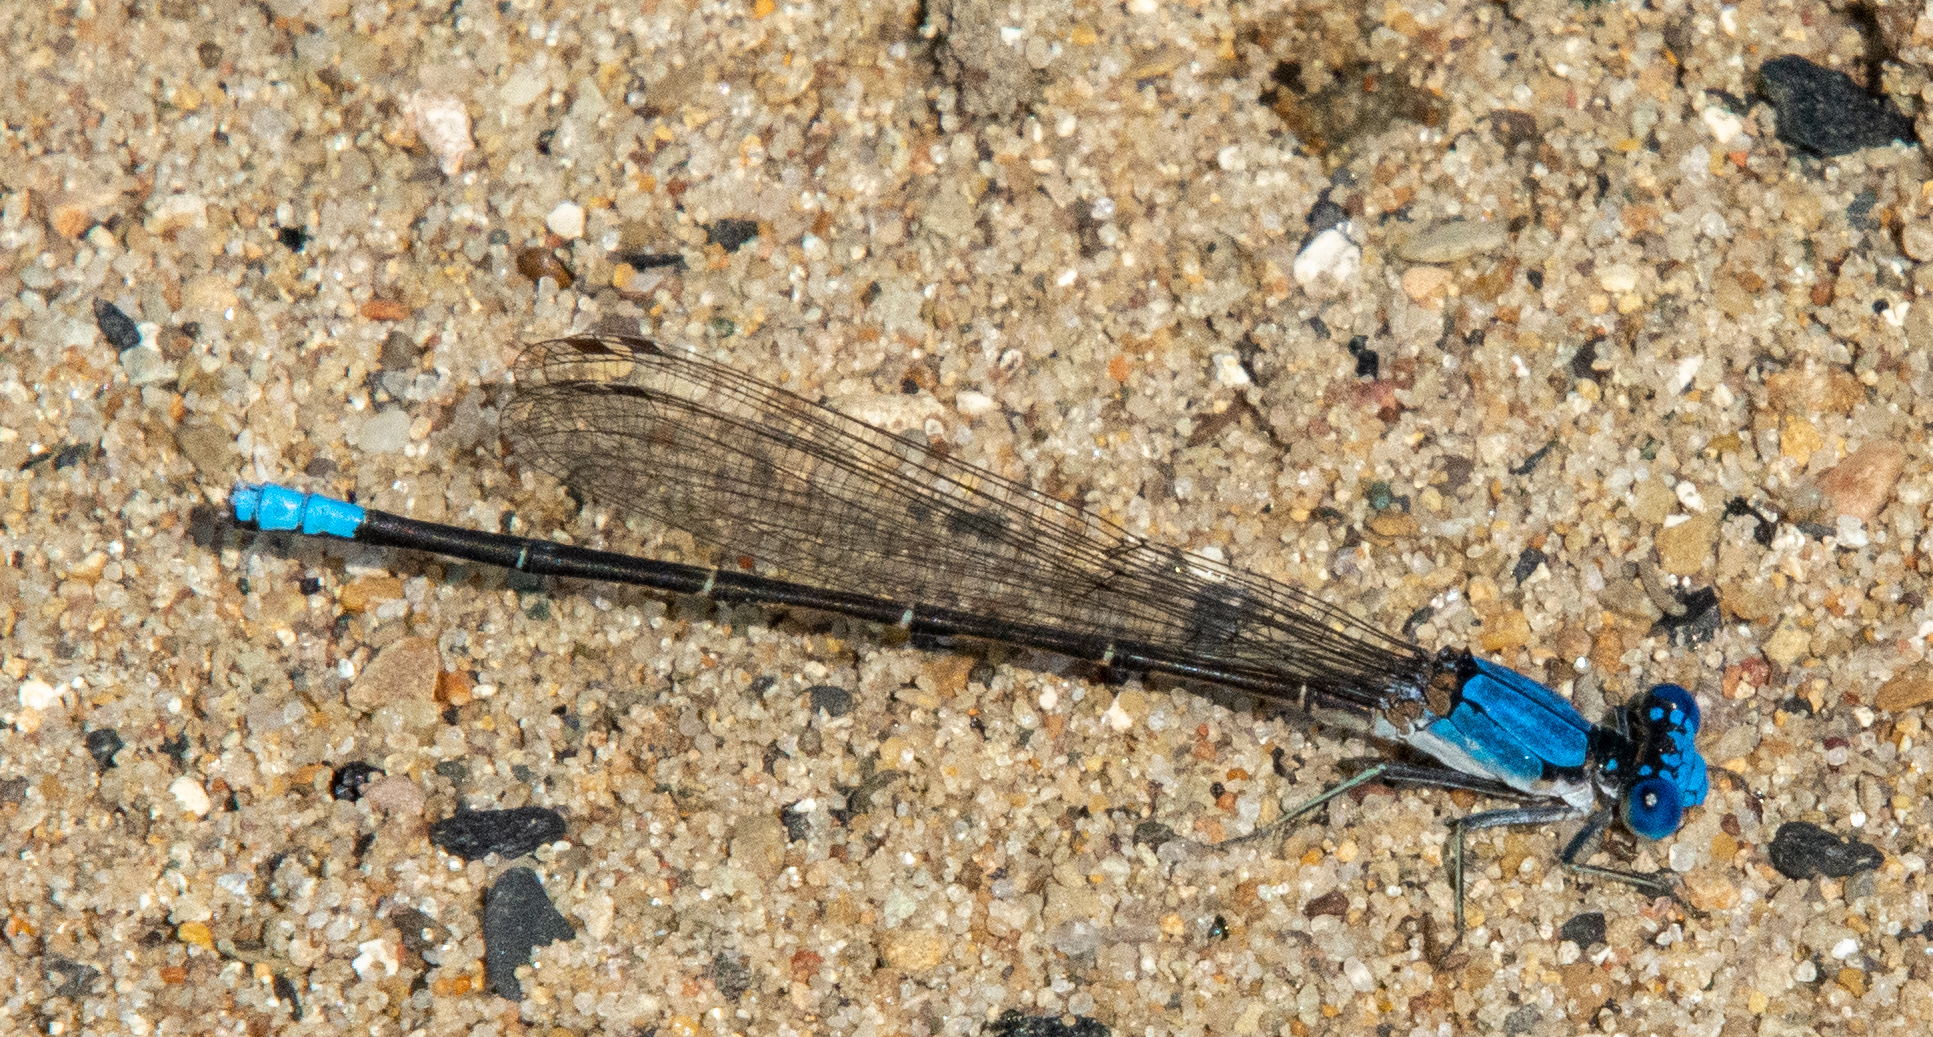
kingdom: Animalia
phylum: Arthropoda
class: Insecta
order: Odonata
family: Coenagrionidae
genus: Argia
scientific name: Argia apicalis
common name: Blue-fronted dancer
